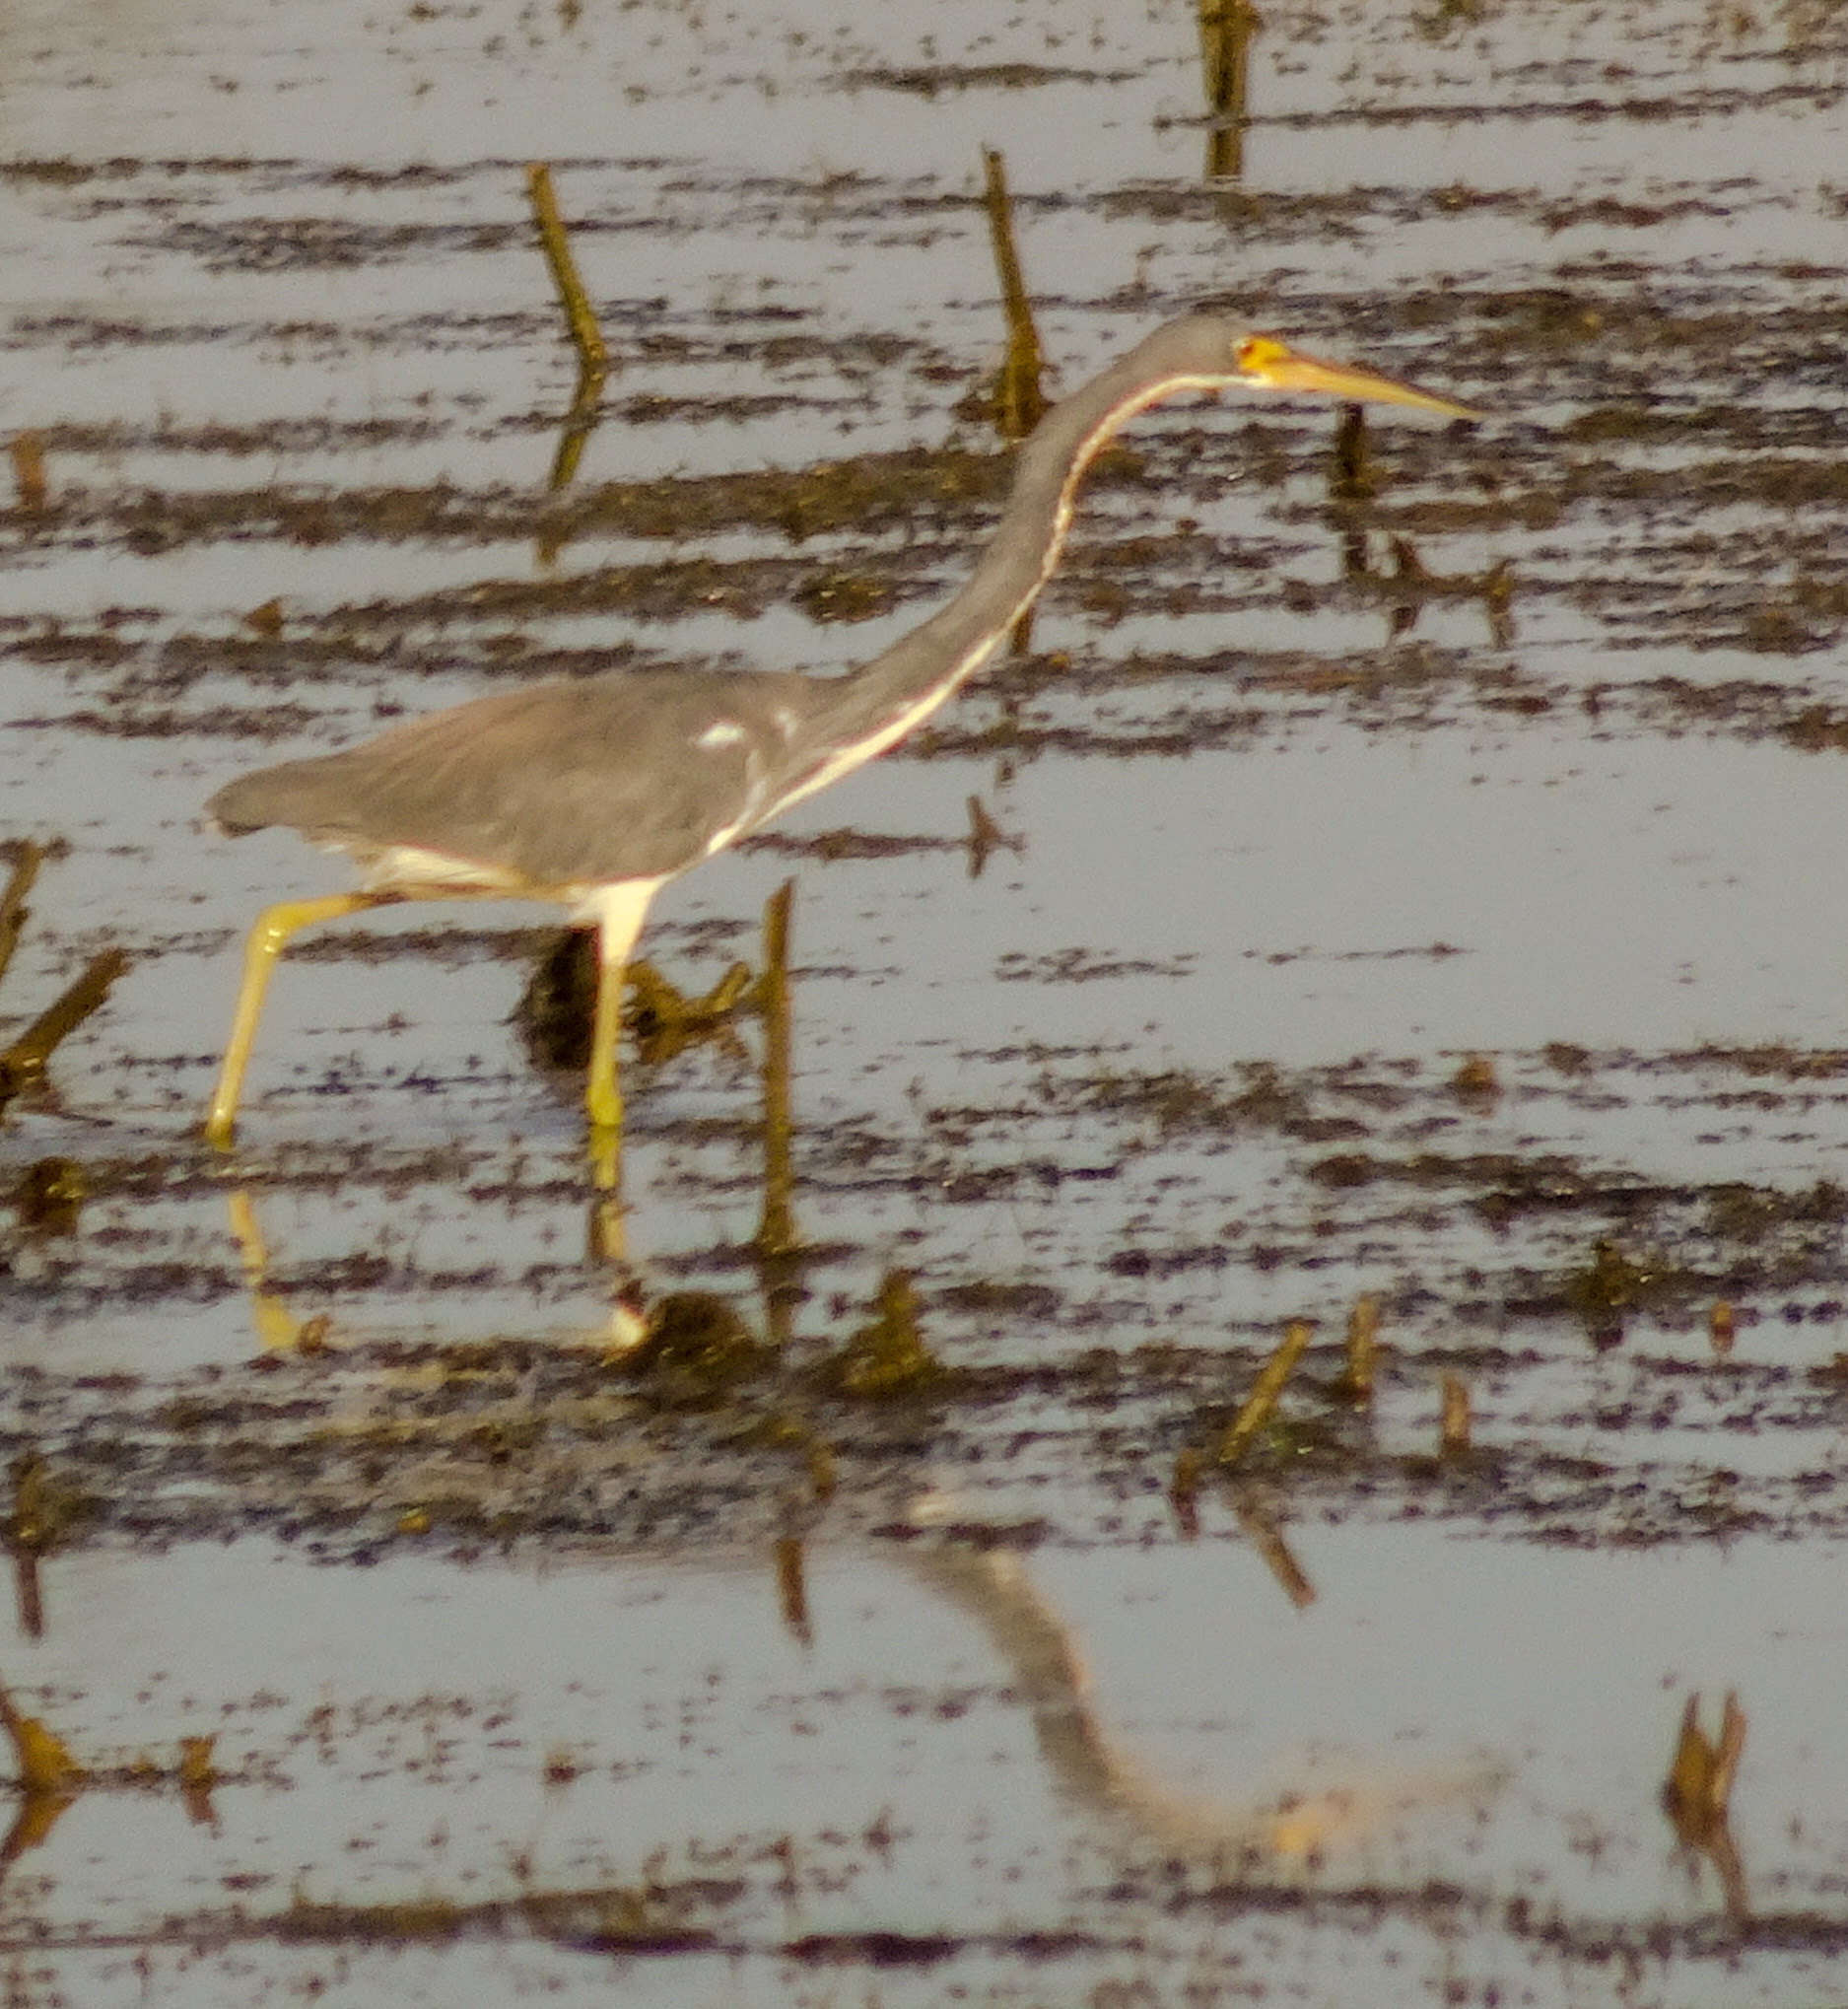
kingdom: Animalia
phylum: Chordata
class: Aves
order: Pelecaniformes
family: Ardeidae
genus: Egretta
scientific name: Egretta tricolor
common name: Tricolored heron
